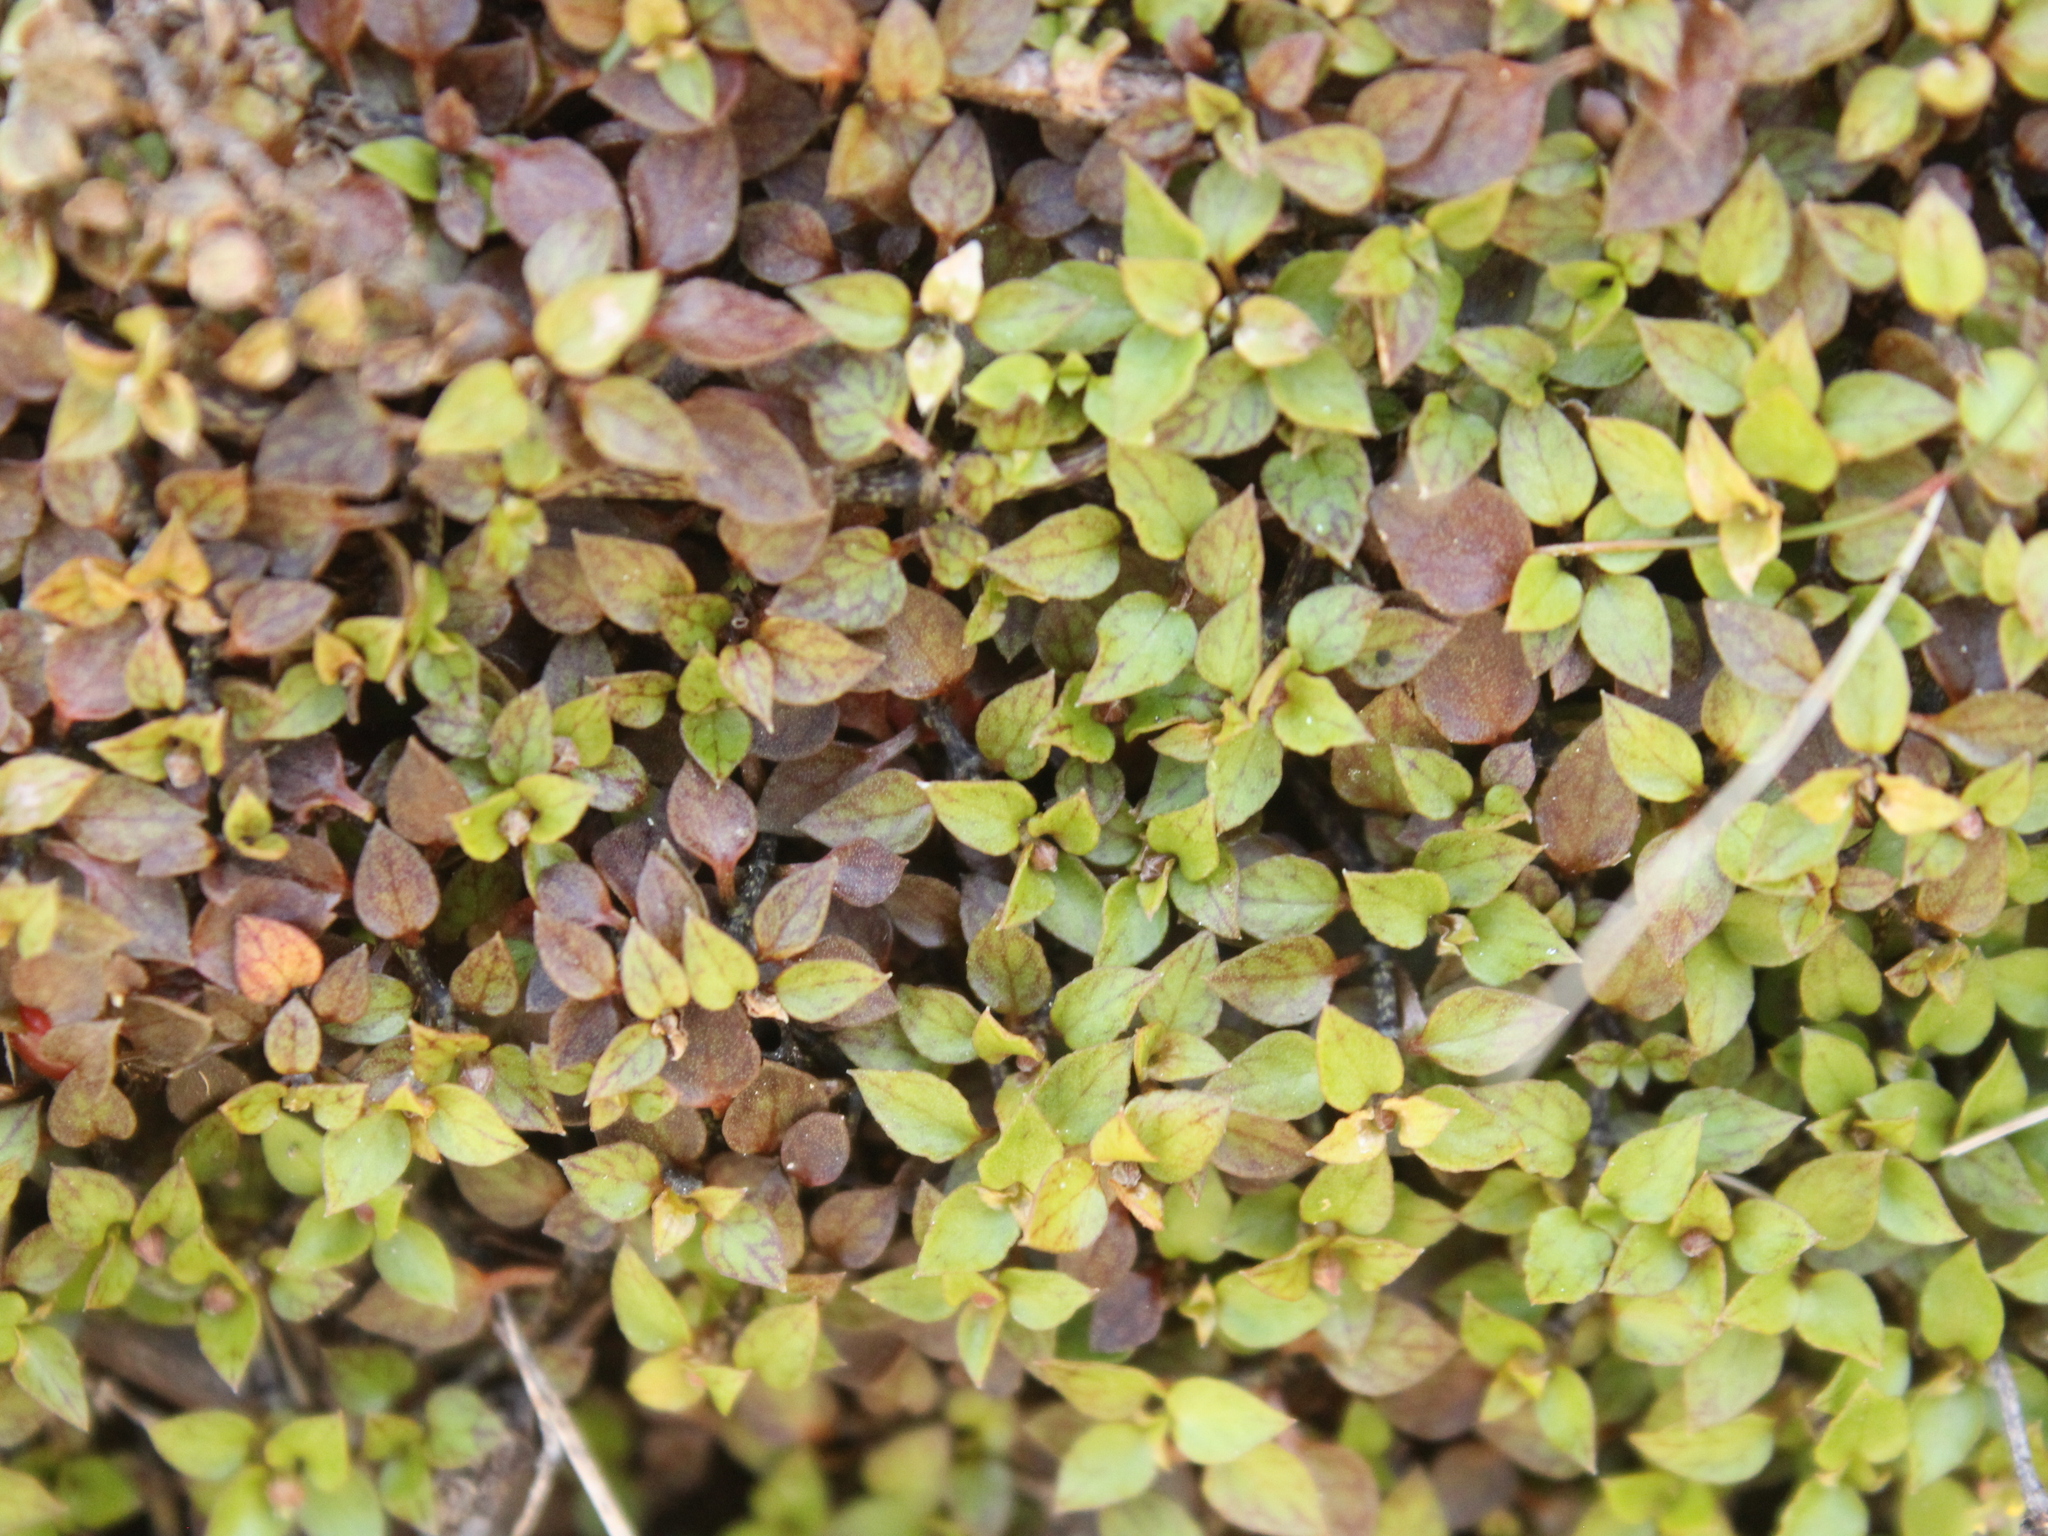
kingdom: Plantae
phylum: Tracheophyta
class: Magnoliopsida
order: Gentianales
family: Rubiaceae
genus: Nertera
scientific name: Nertera granadensis
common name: Beadplant
